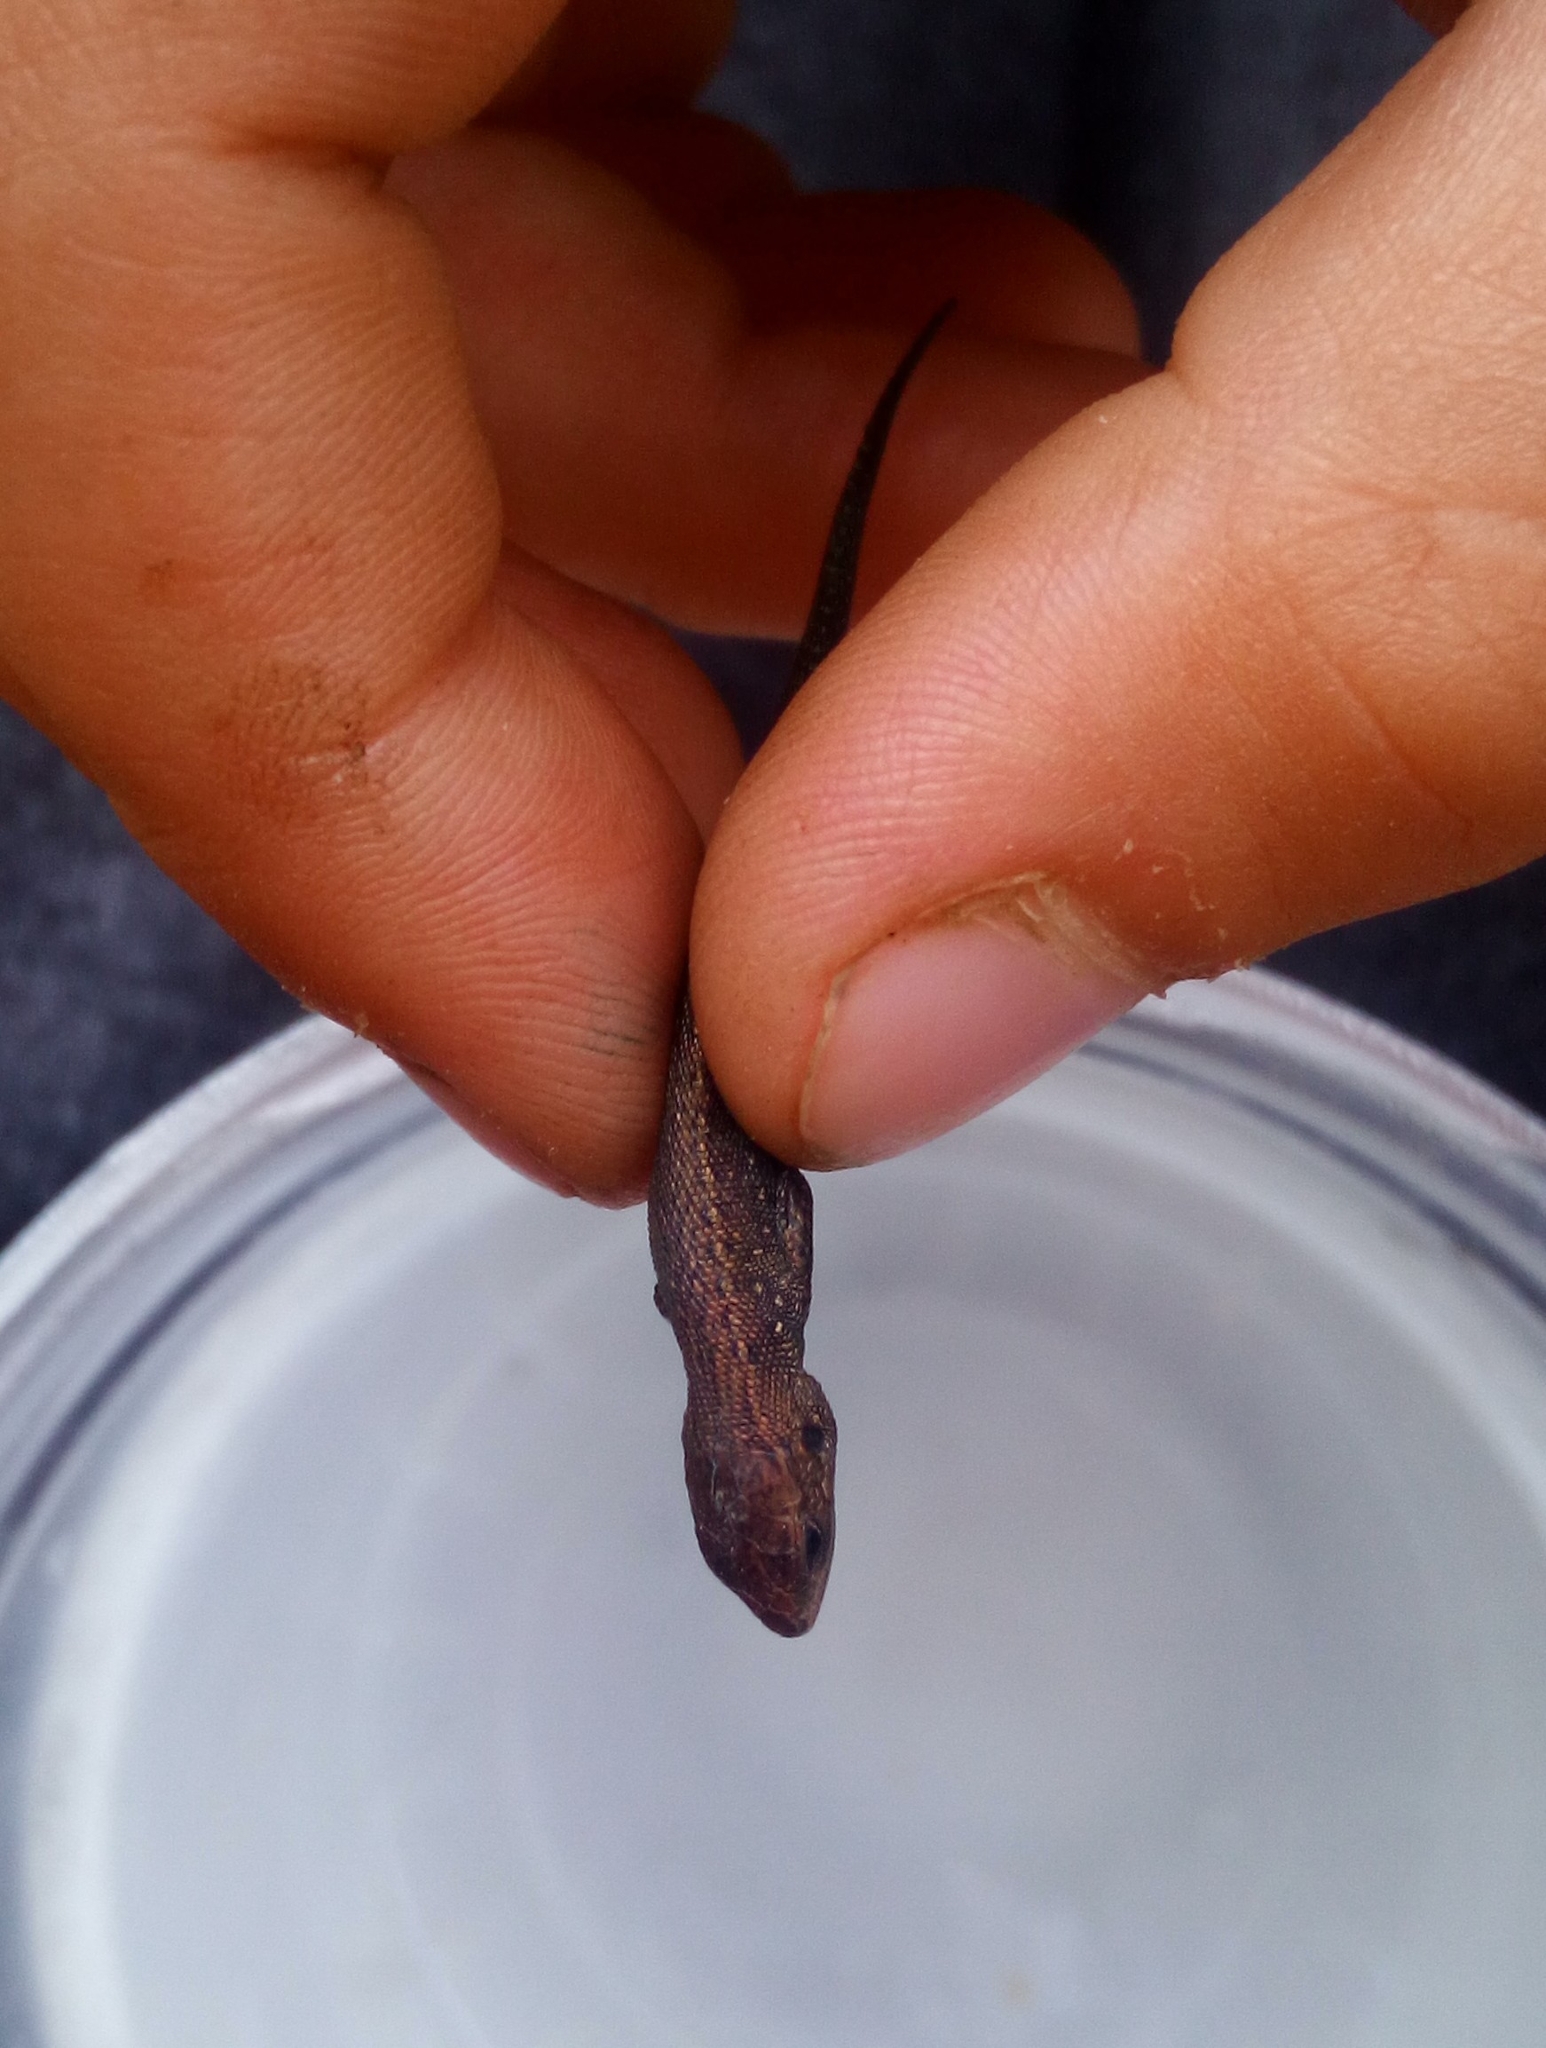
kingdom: Animalia
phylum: Chordata
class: Squamata
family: Lacertidae
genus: Zootoca
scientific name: Zootoca vivipara
